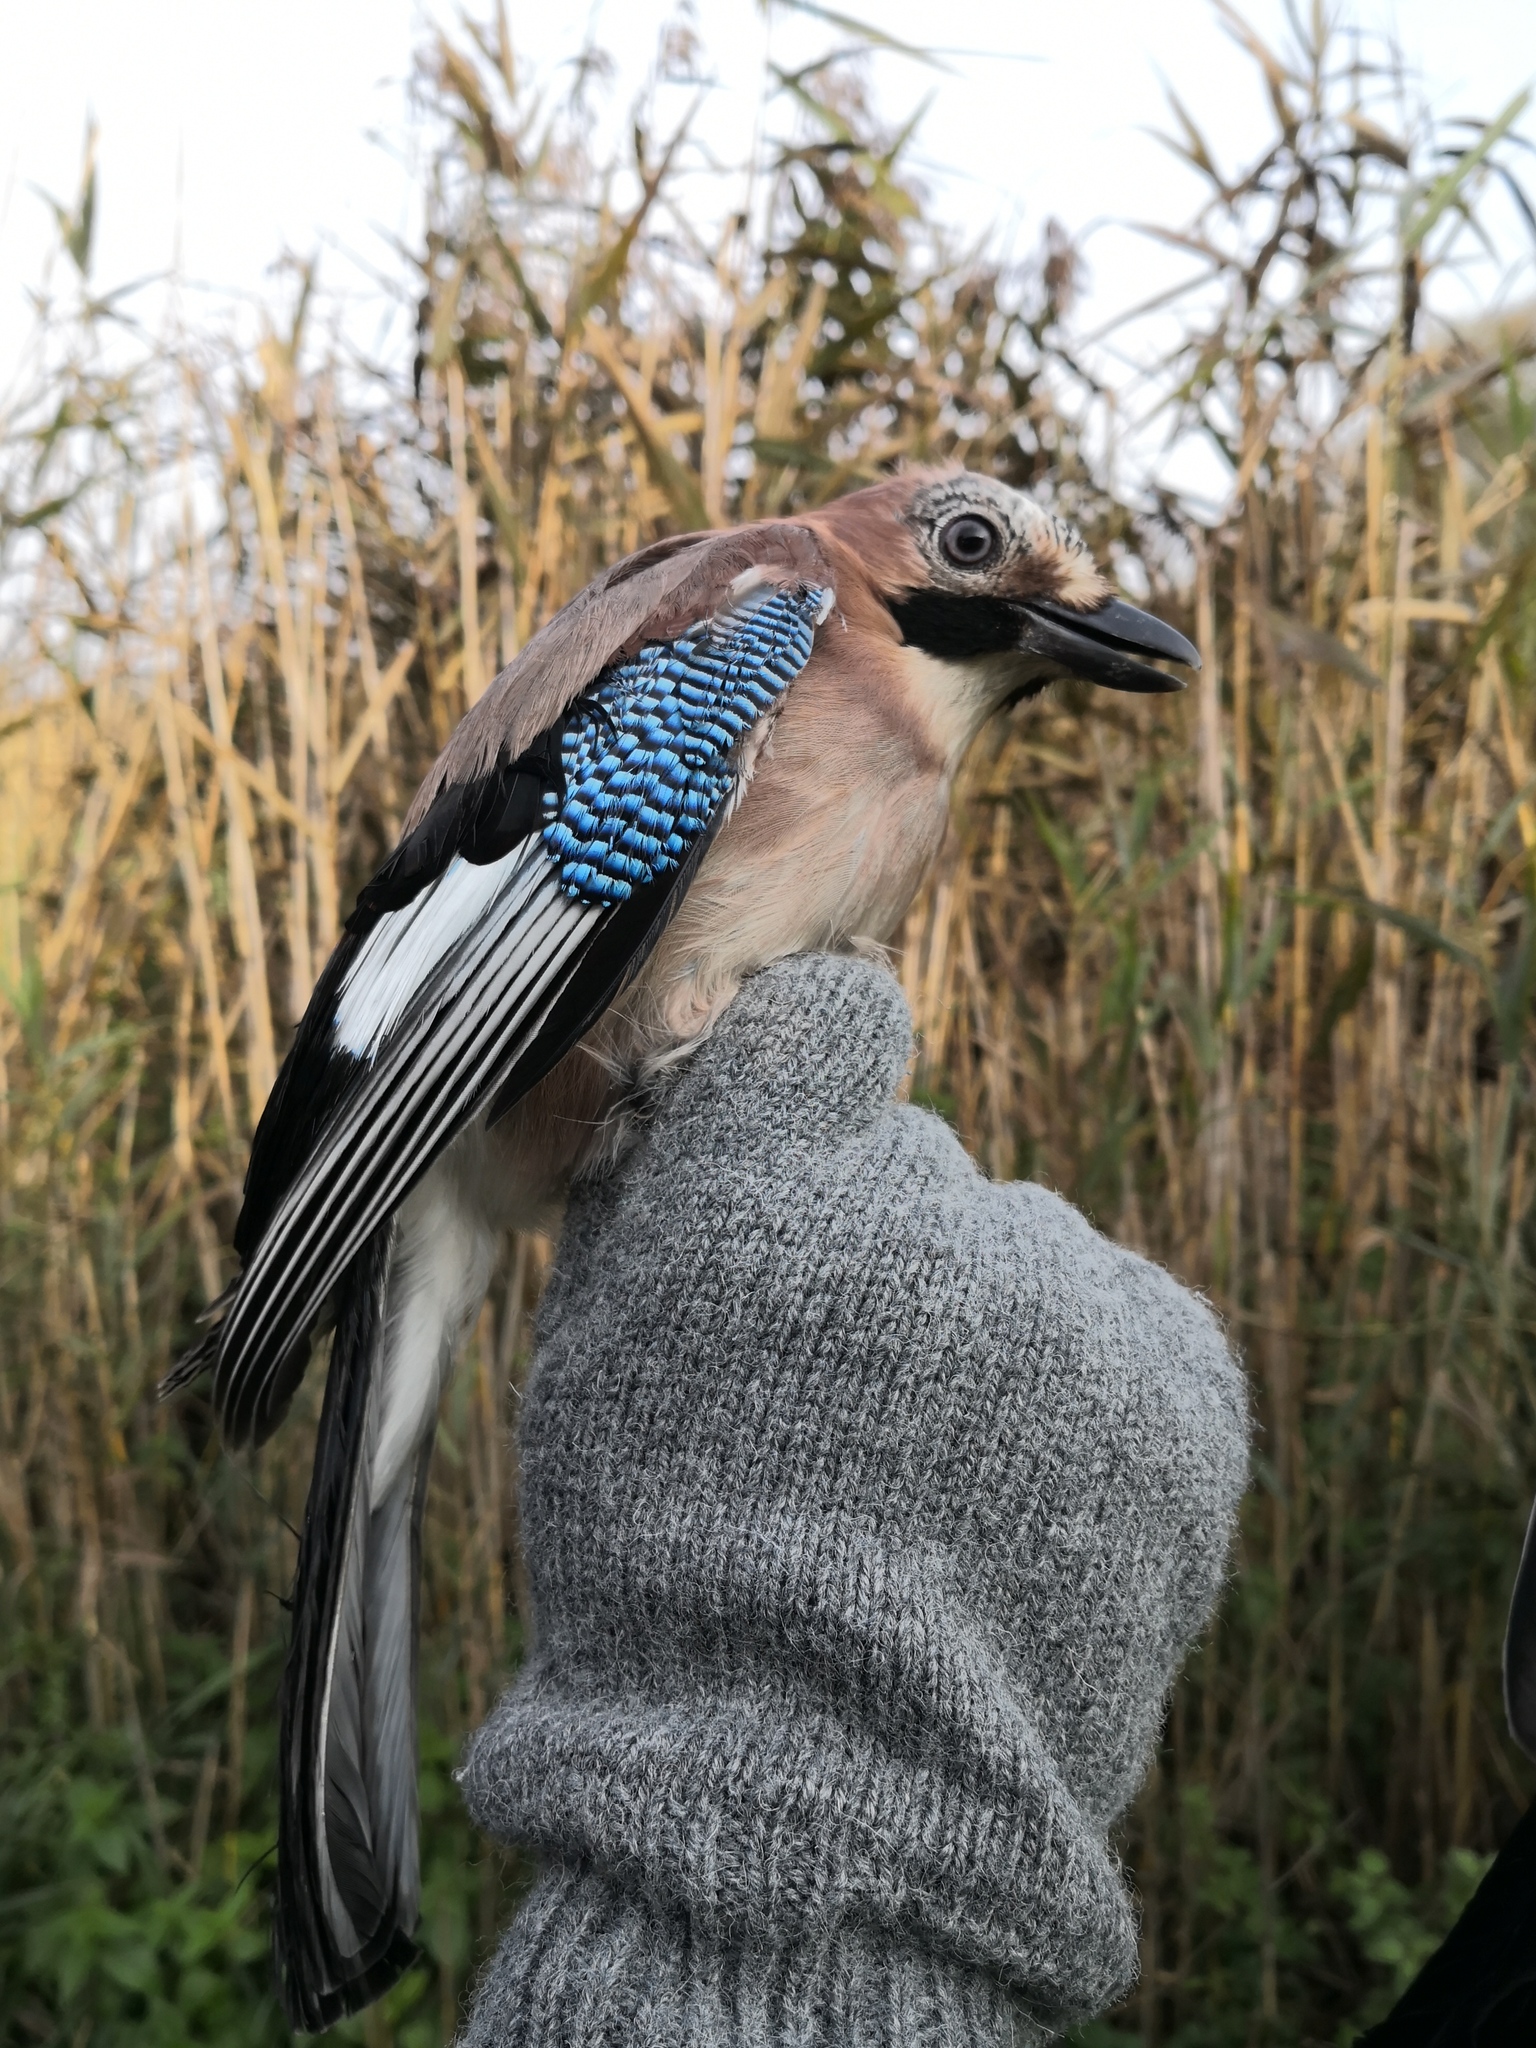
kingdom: Animalia
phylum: Chordata
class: Aves
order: Passeriformes
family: Corvidae
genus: Garrulus
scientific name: Garrulus glandarius
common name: Eurasian jay
